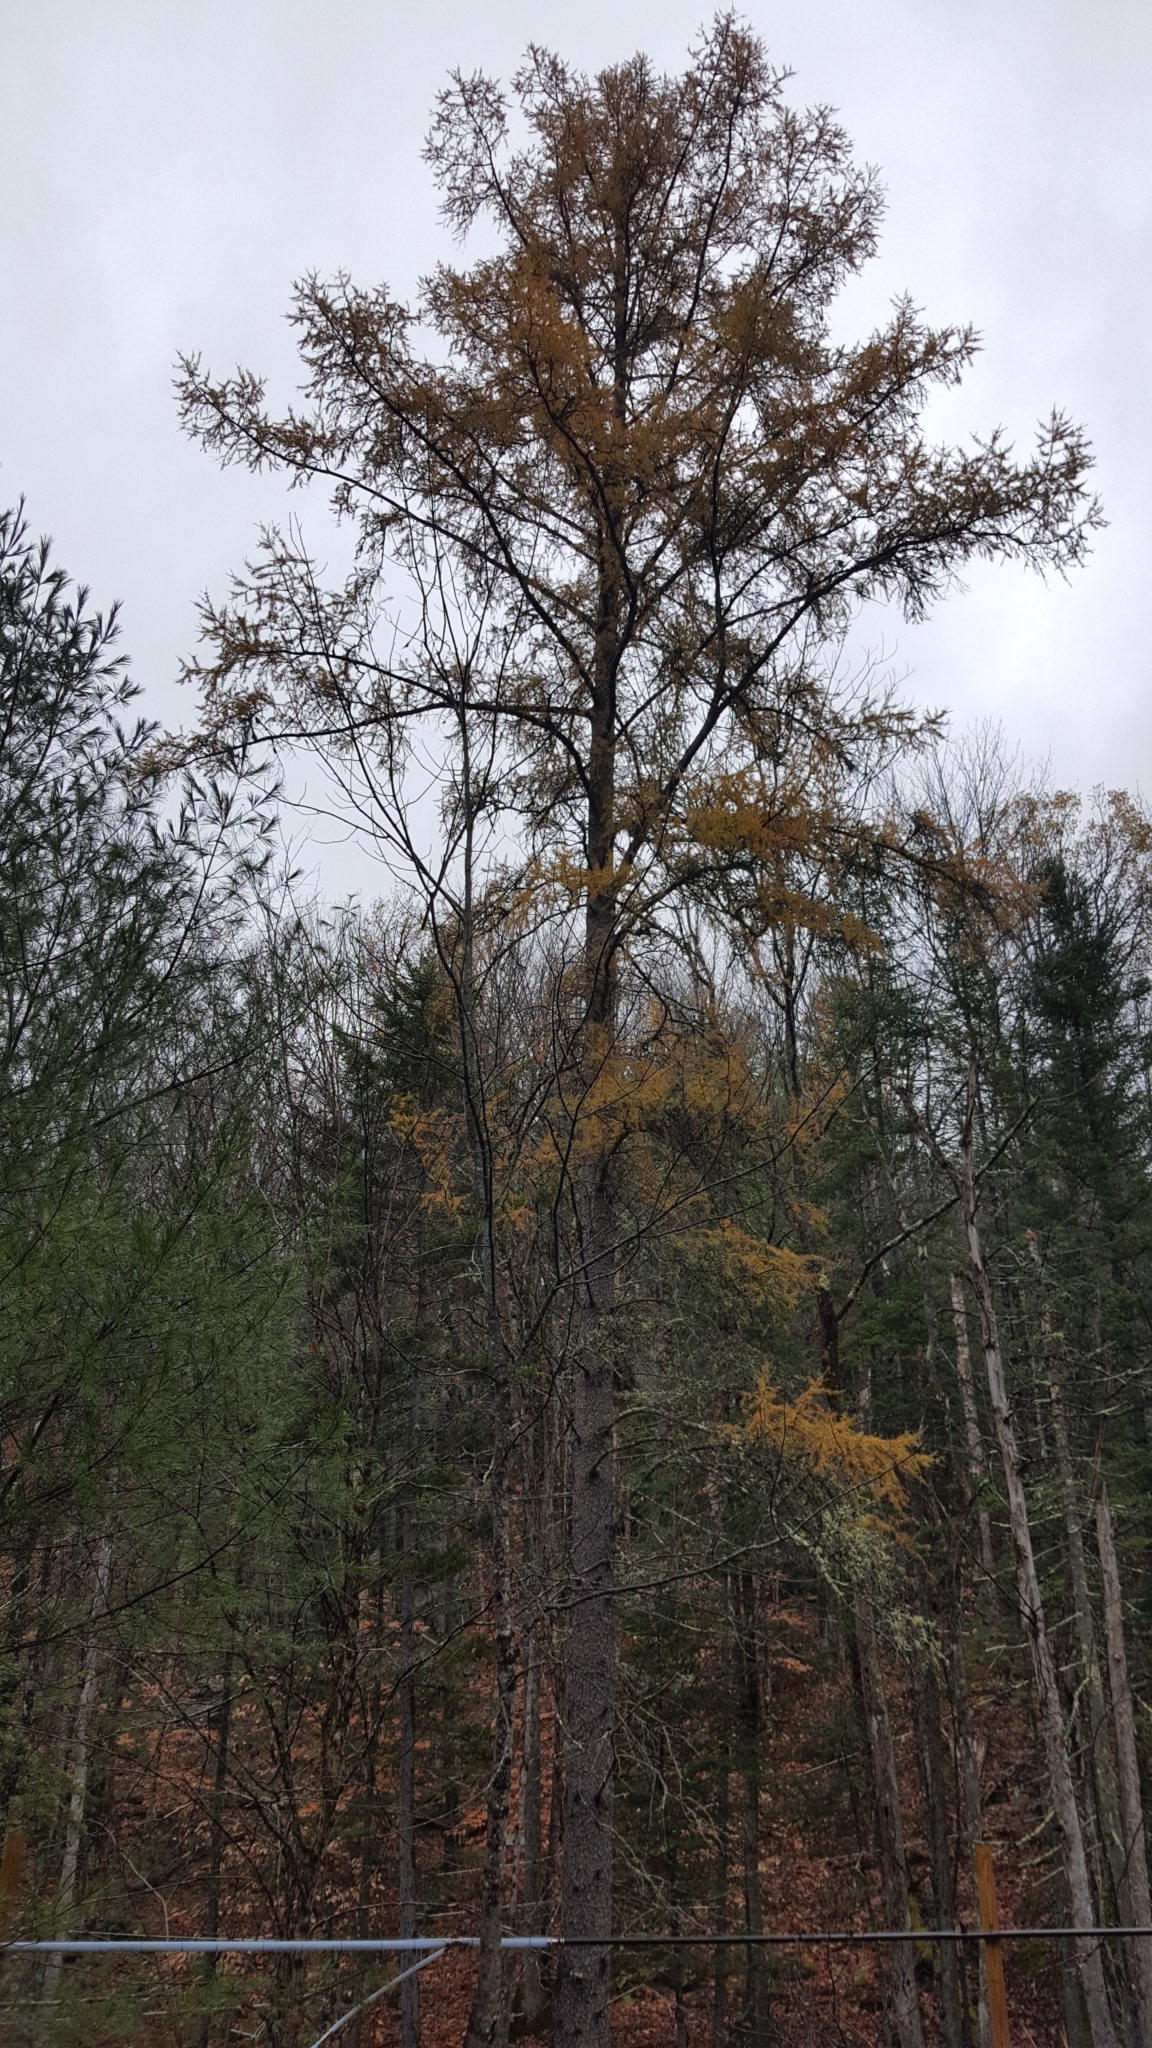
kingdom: Plantae
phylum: Tracheophyta
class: Pinopsida
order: Pinales
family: Pinaceae
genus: Larix
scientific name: Larix laricina
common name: American larch
